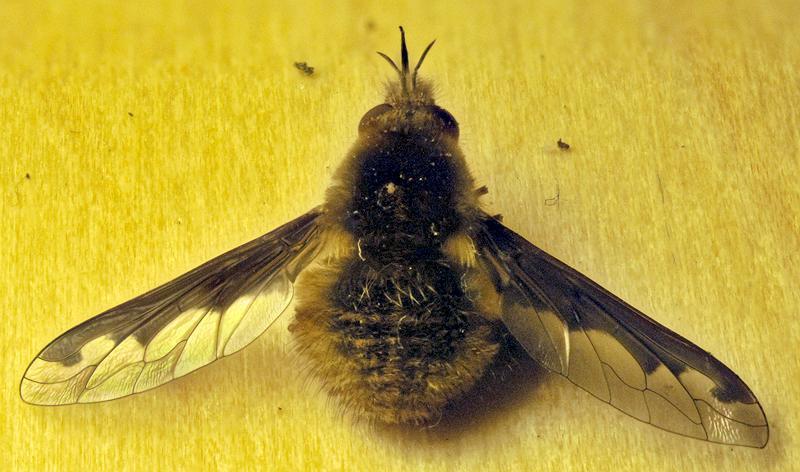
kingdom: Animalia
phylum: Arthropoda
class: Insecta
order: Diptera
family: Bombyliidae
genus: Bombylius
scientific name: Bombylius major
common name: Bee fly
